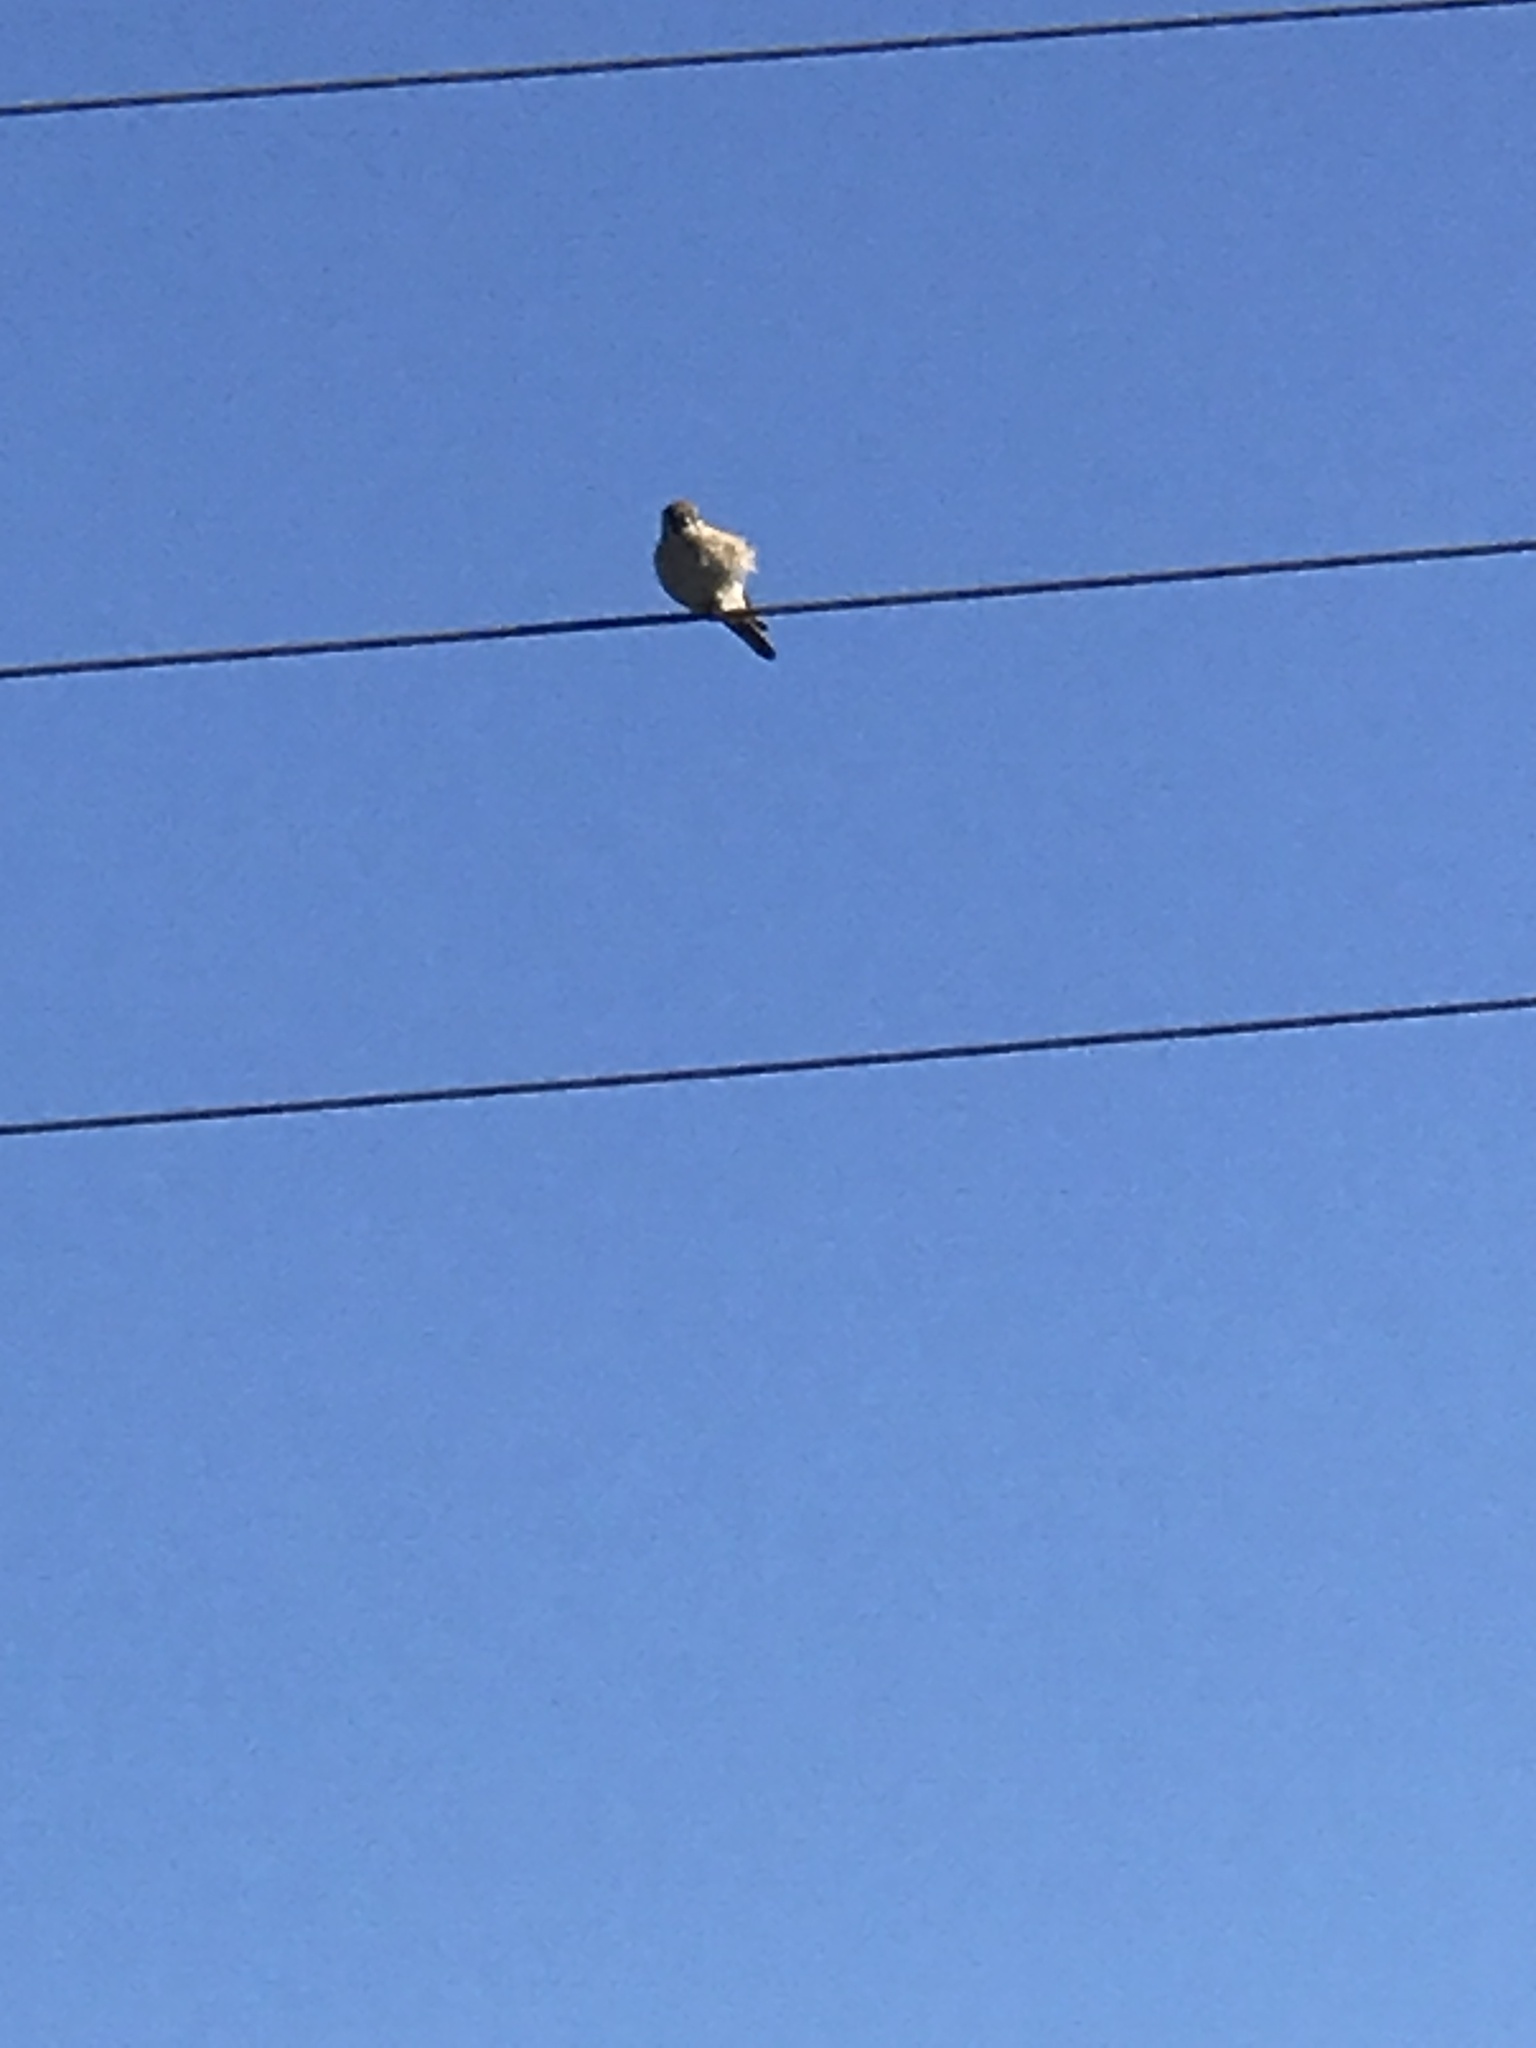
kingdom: Animalia
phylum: Chordata
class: Aves
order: Falconiformes
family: Falconidae
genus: Falco
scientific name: Falco sparverius
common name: American kestrel
